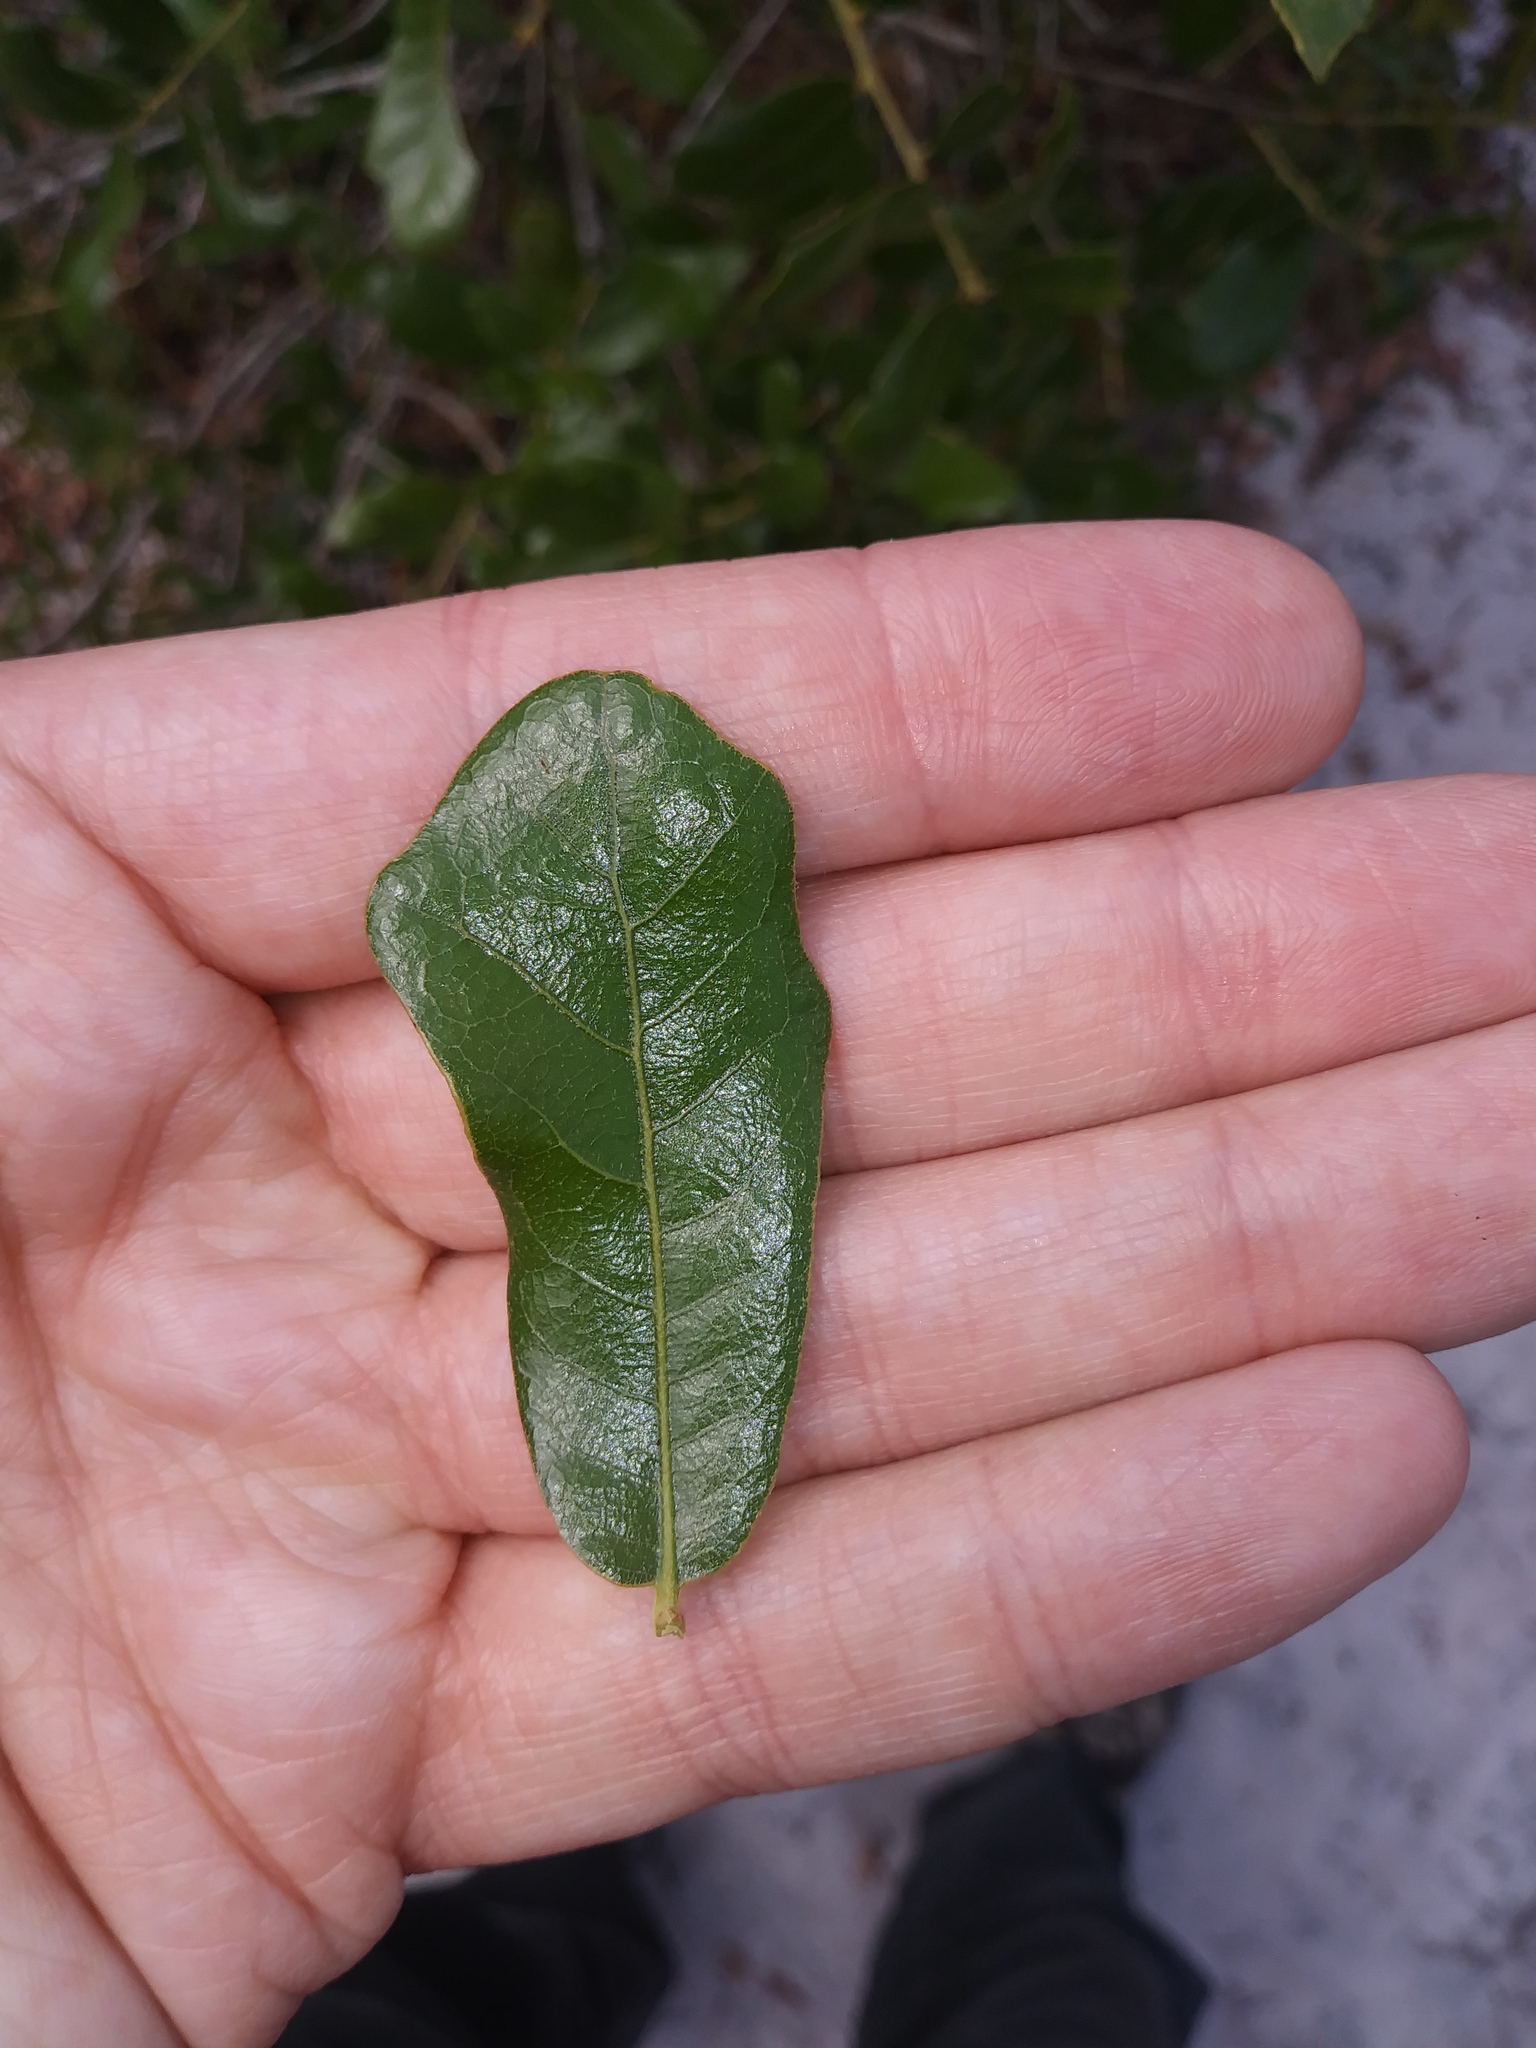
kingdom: Plantae
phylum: Tracheophyta
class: Magnoliopsida
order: Fagales
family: Fagaceae
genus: Quercus
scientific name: Quercus chapmanii
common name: Chapman oak
